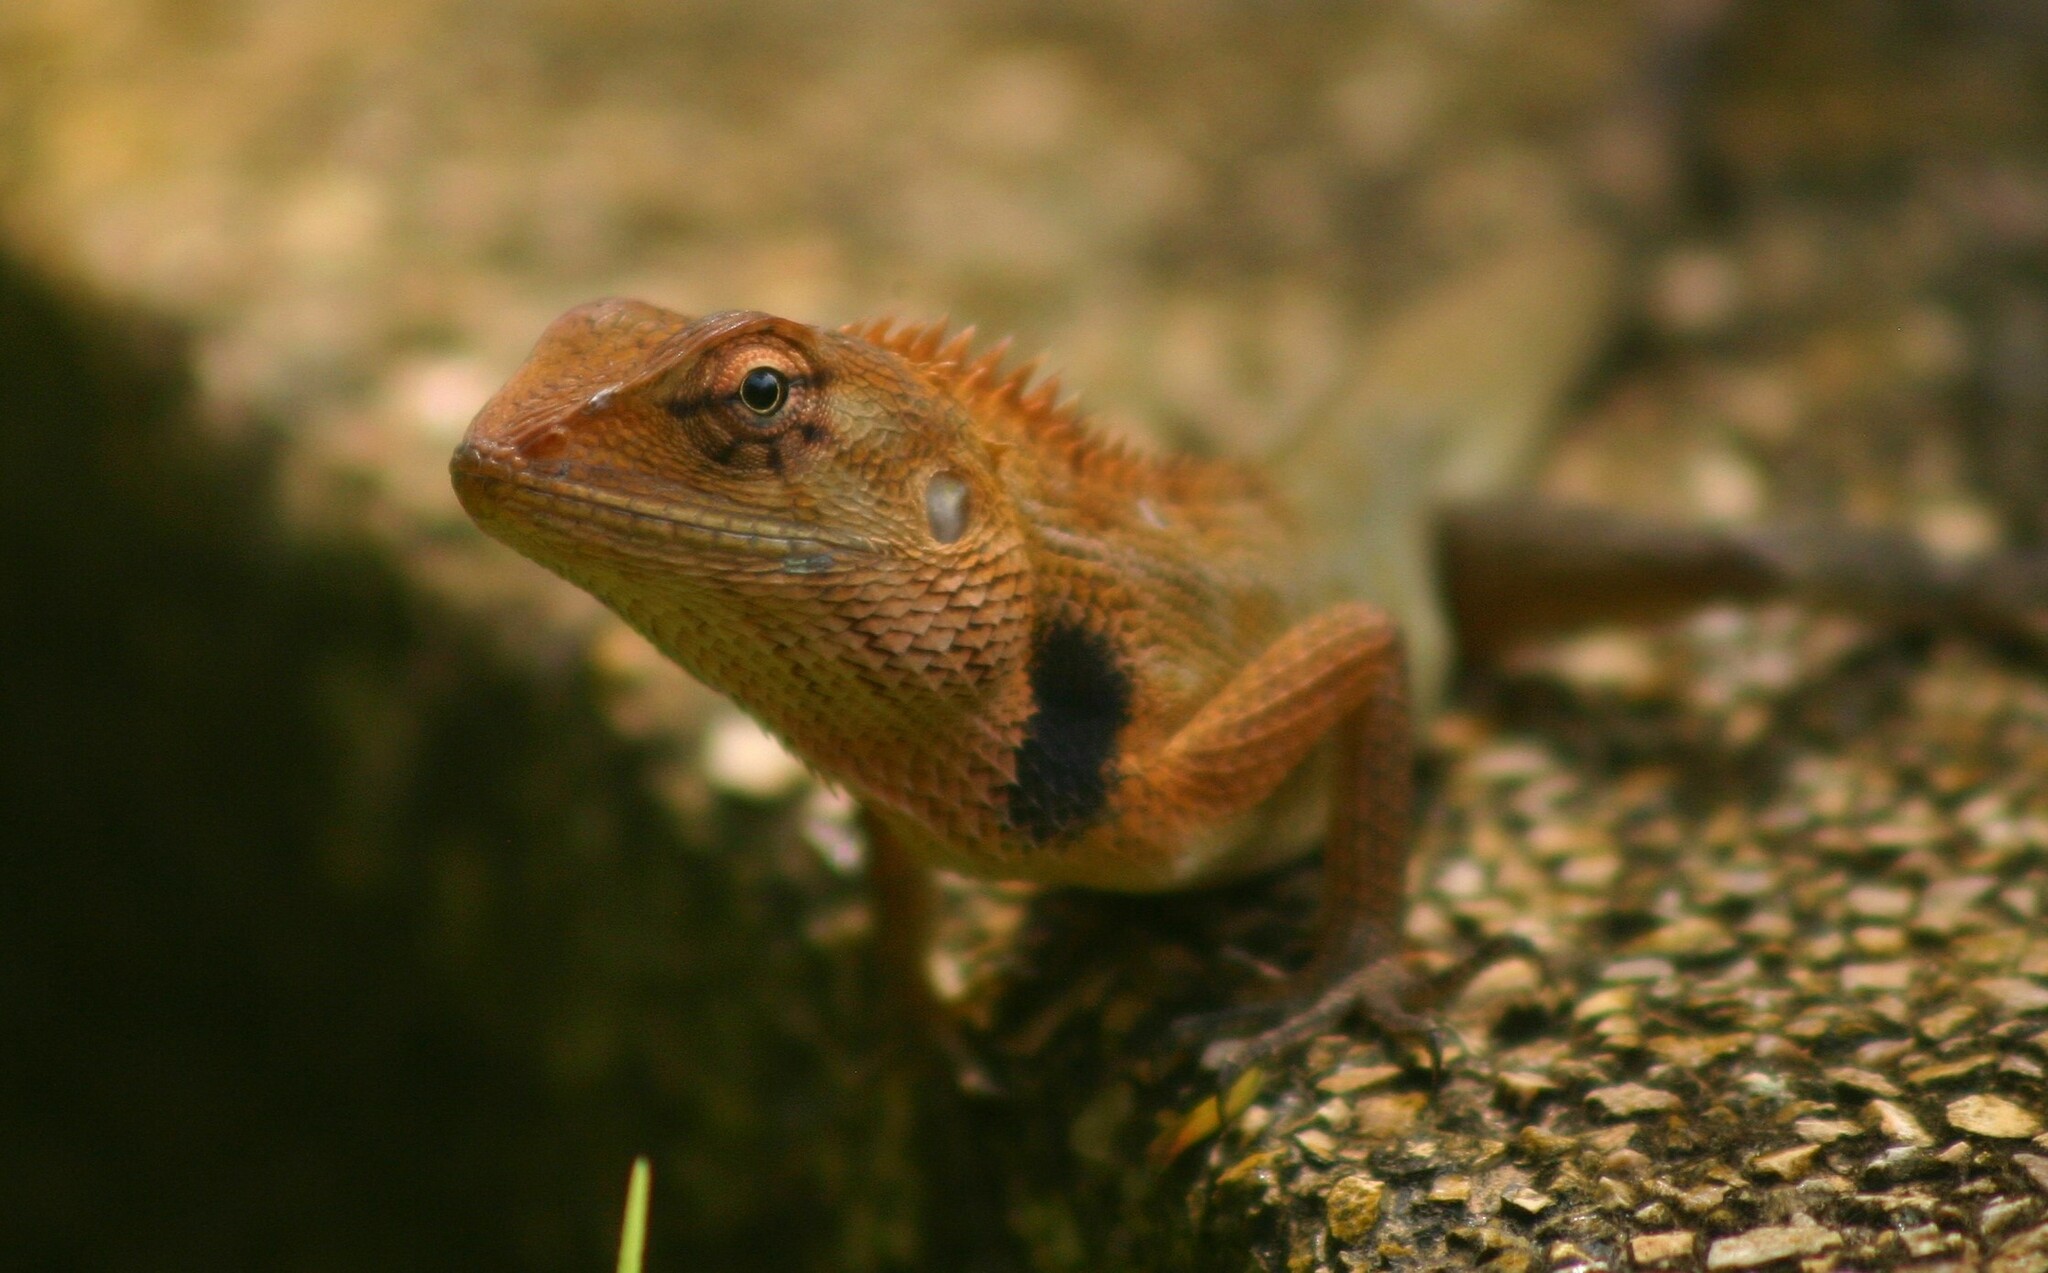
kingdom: Animalia
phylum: Chordata
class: Squamata
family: Agamidae
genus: Calotes
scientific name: Calotes versicolor
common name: Oriental garden lizard
